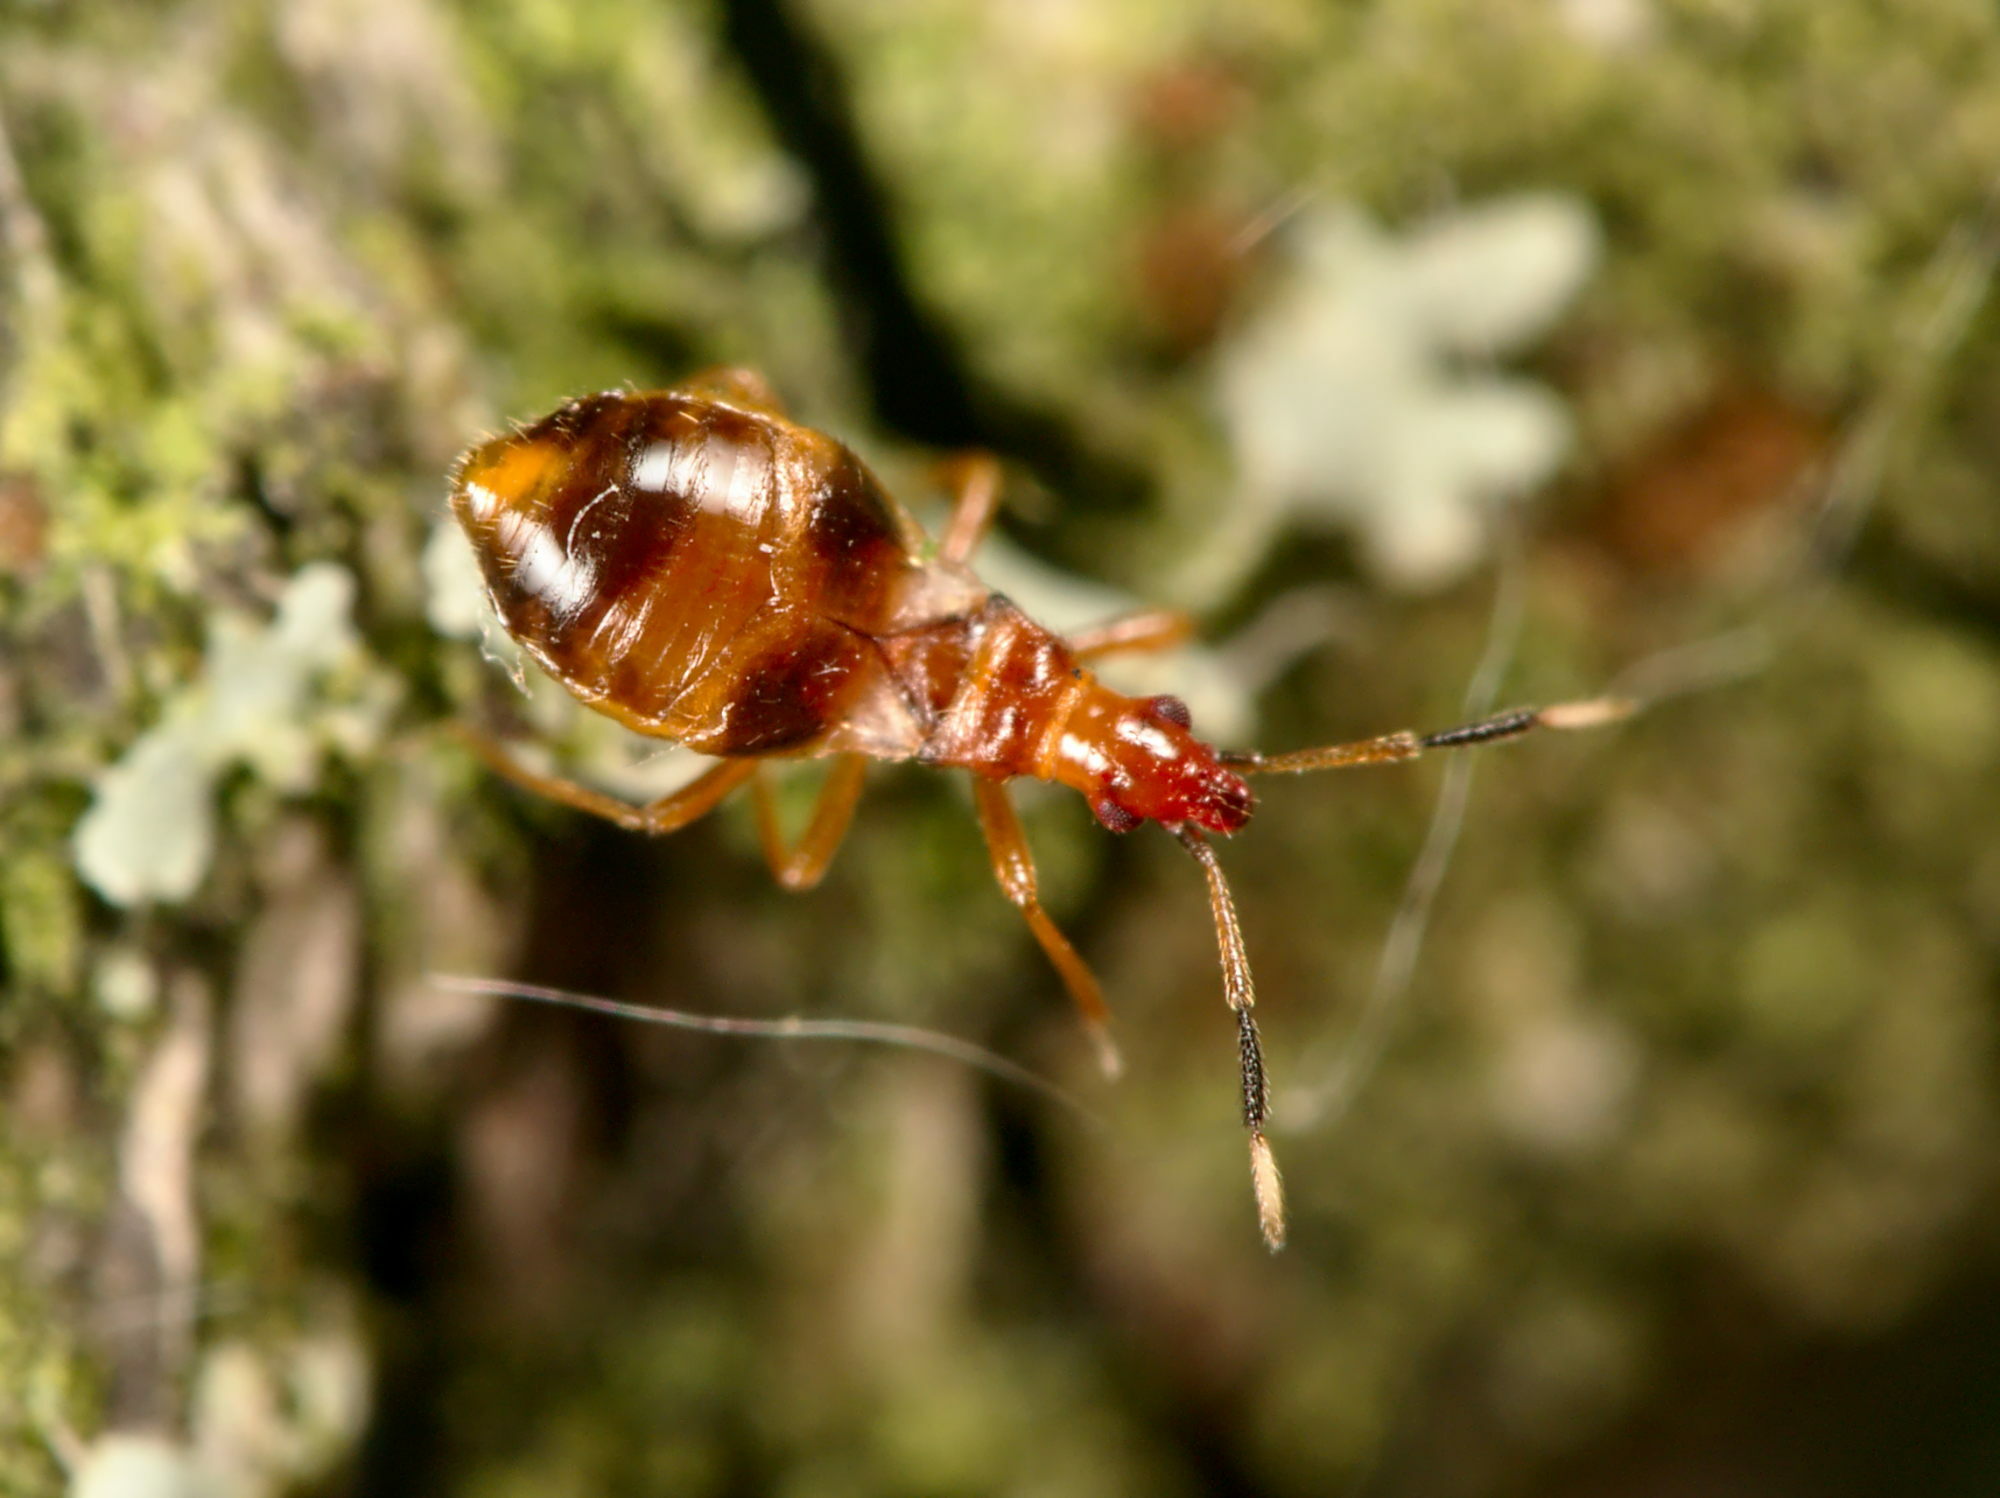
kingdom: Animalia
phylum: Arthropoda
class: Insecta
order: Hemiptera
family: Microphysidae
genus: Loricula
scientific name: Loricula bipunctata
